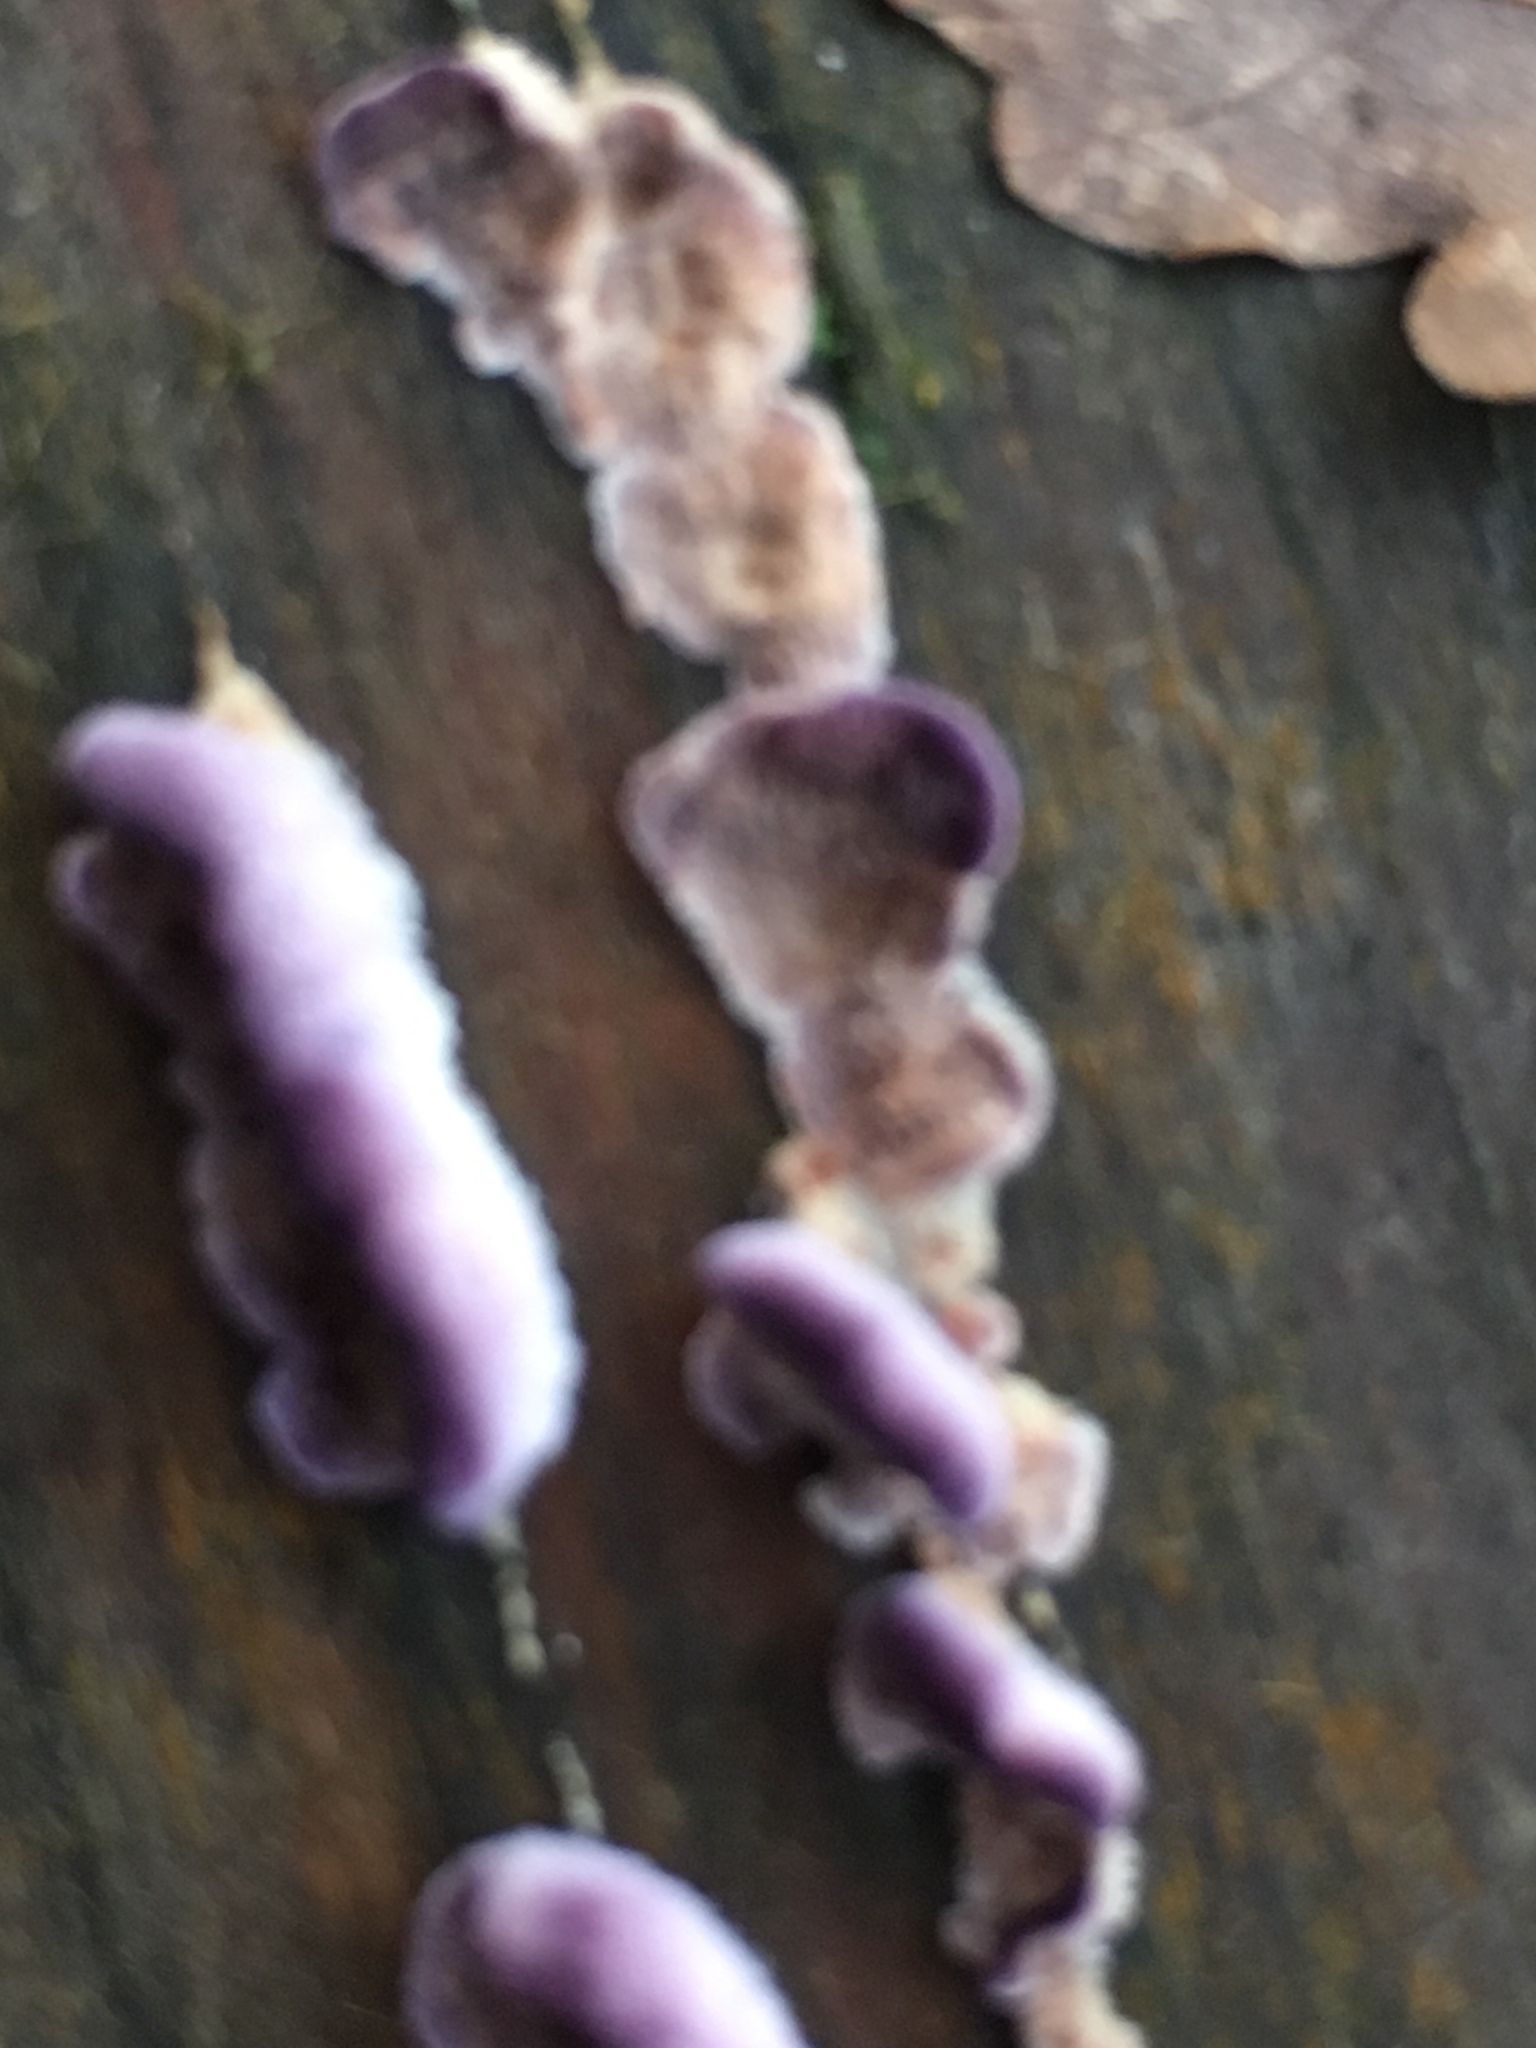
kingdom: Fungi
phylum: Basidiomycota
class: Agaricomycetes
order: Agaricales
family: Cyphellaceae
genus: Chondrostereum
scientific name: Chondrostereum purpureum
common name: Silver leaf disease
